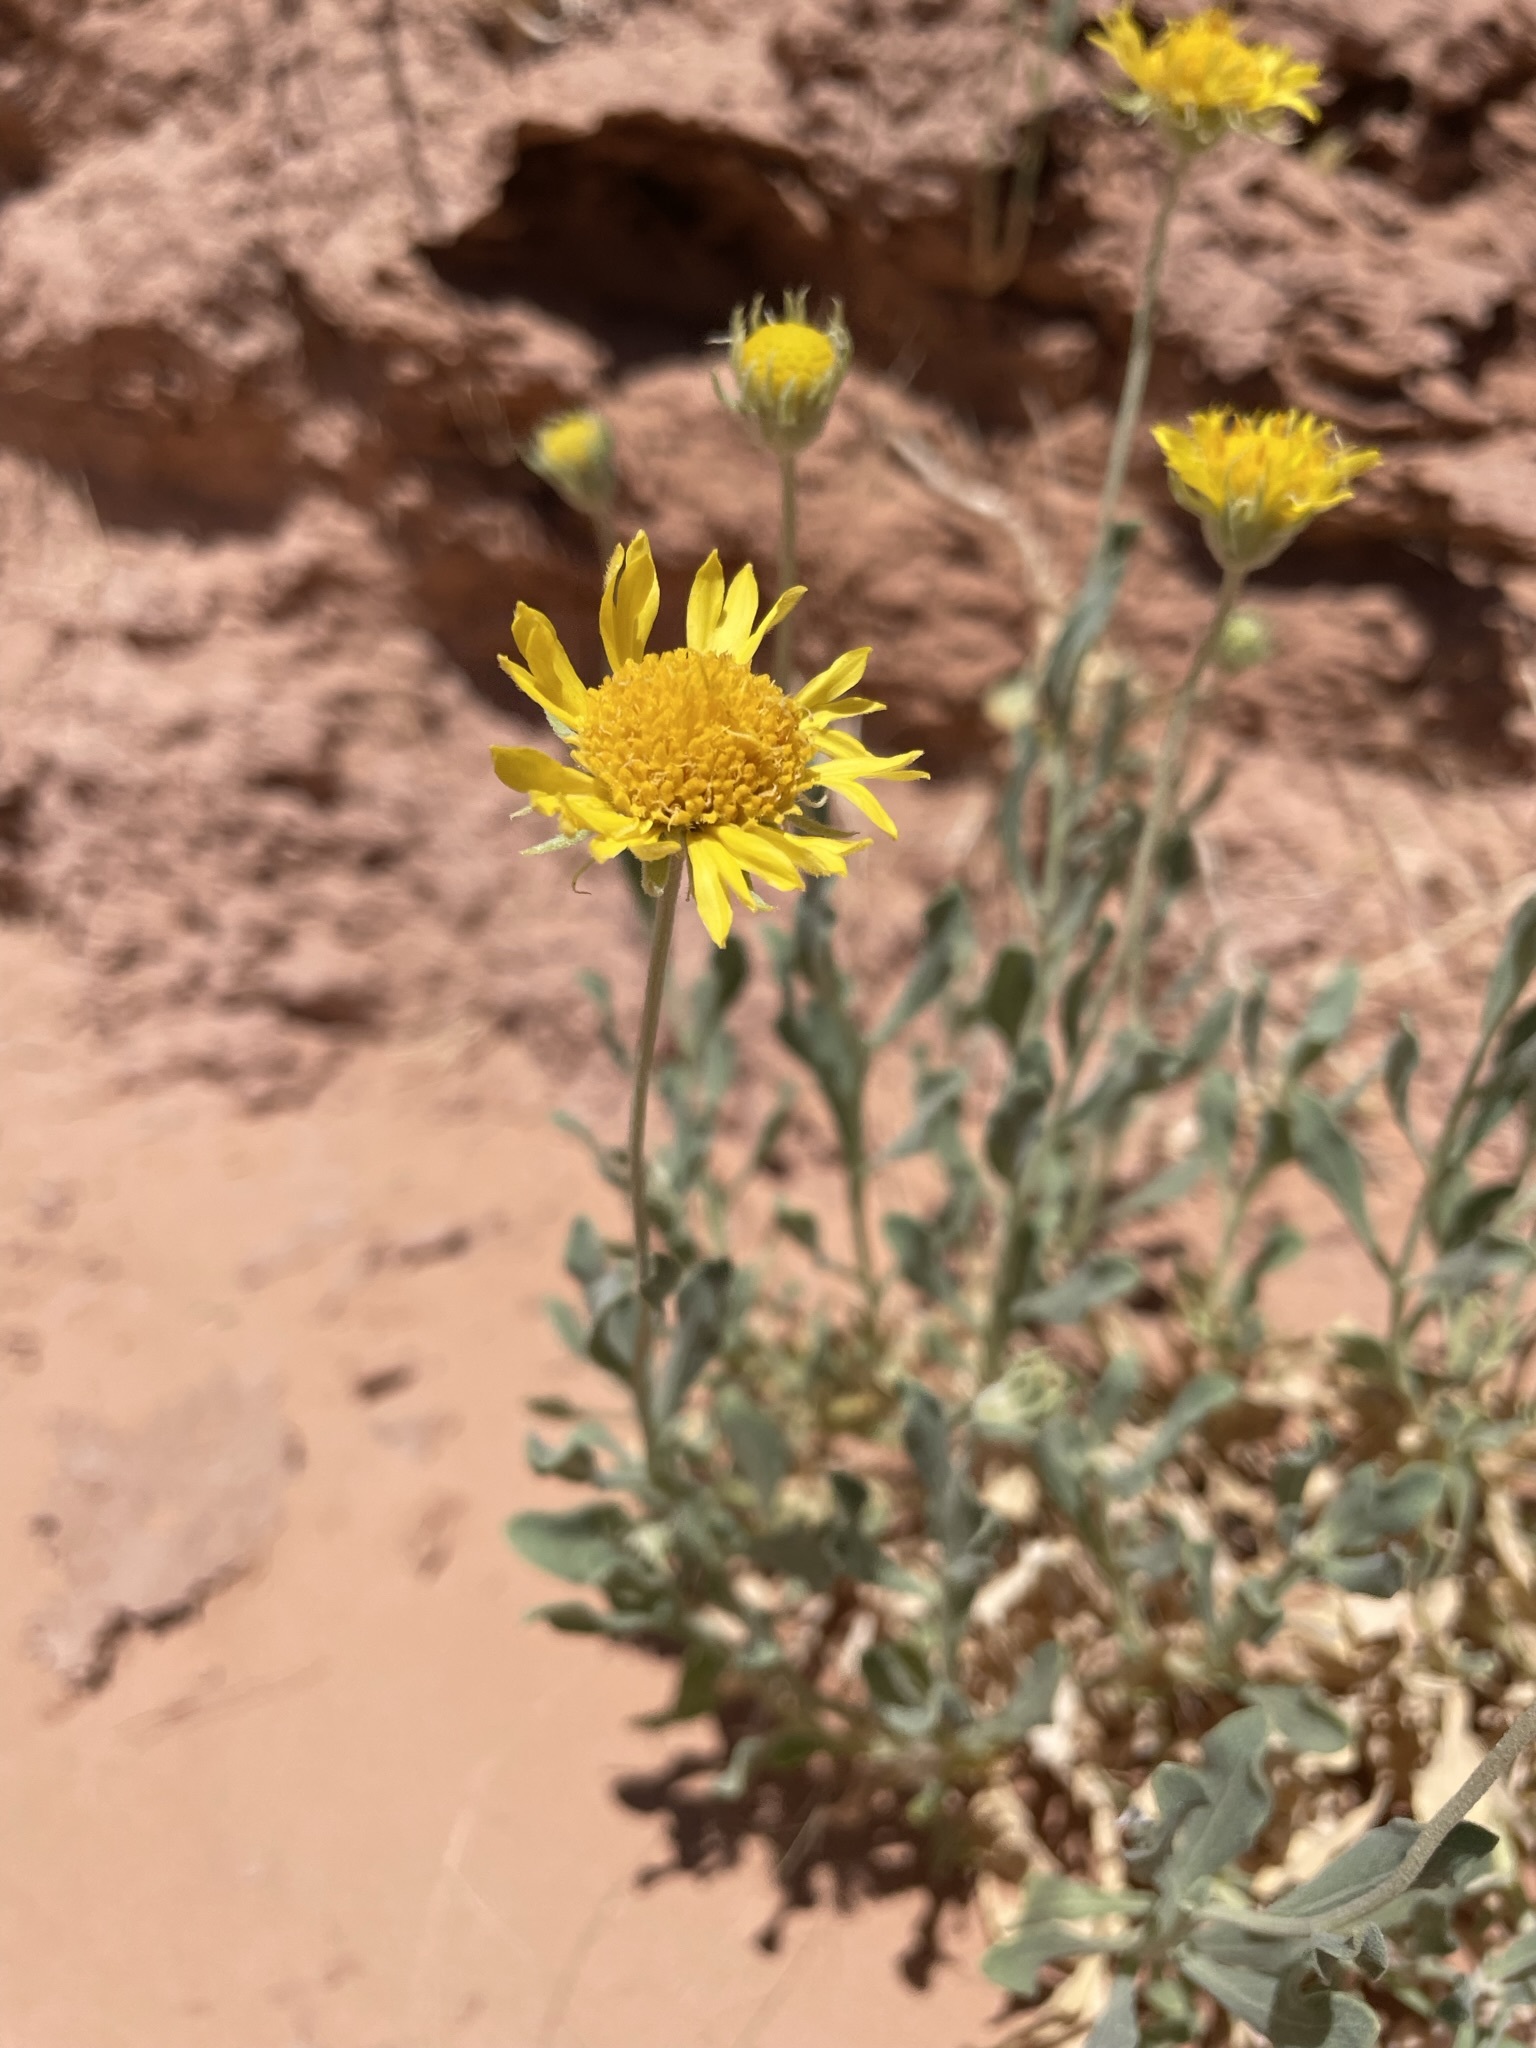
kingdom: Plantae
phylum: Tracheophyta
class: Magnoliopsida
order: Asterales
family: Asteraceae
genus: Gaillardia
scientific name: Gaillardia spathulata
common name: Basin blanket-flower
